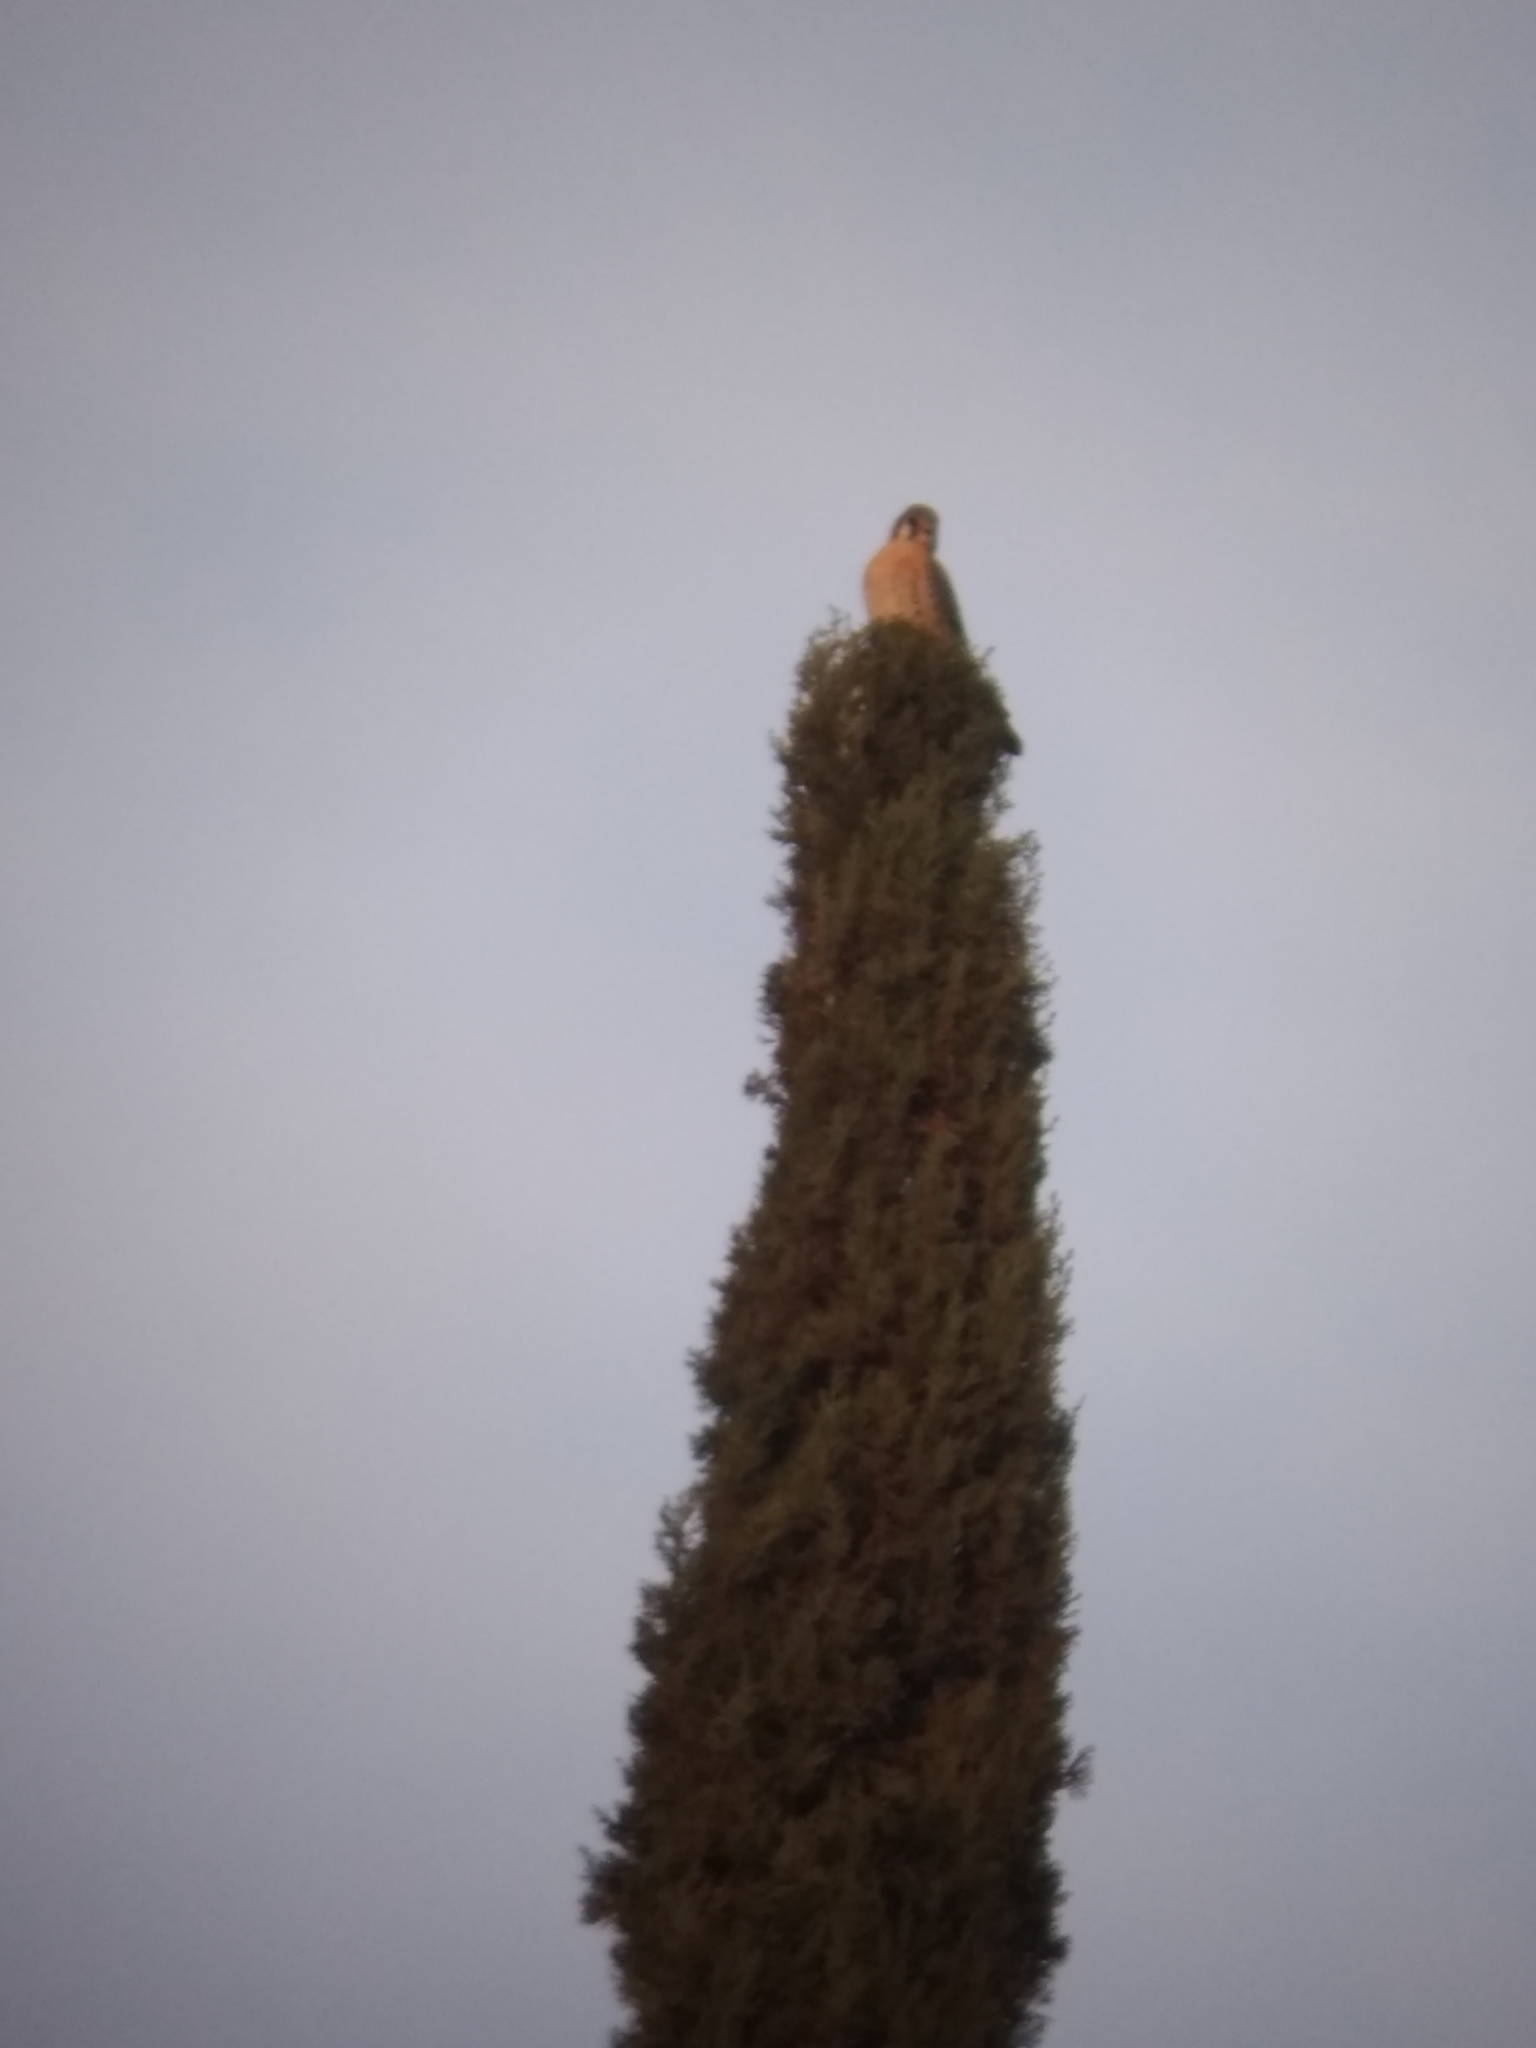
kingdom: Animalia
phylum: Chordata
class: Aves
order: Falconiformes
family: Falconidae
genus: Falco
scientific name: Falco sparverius
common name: American kestrel
